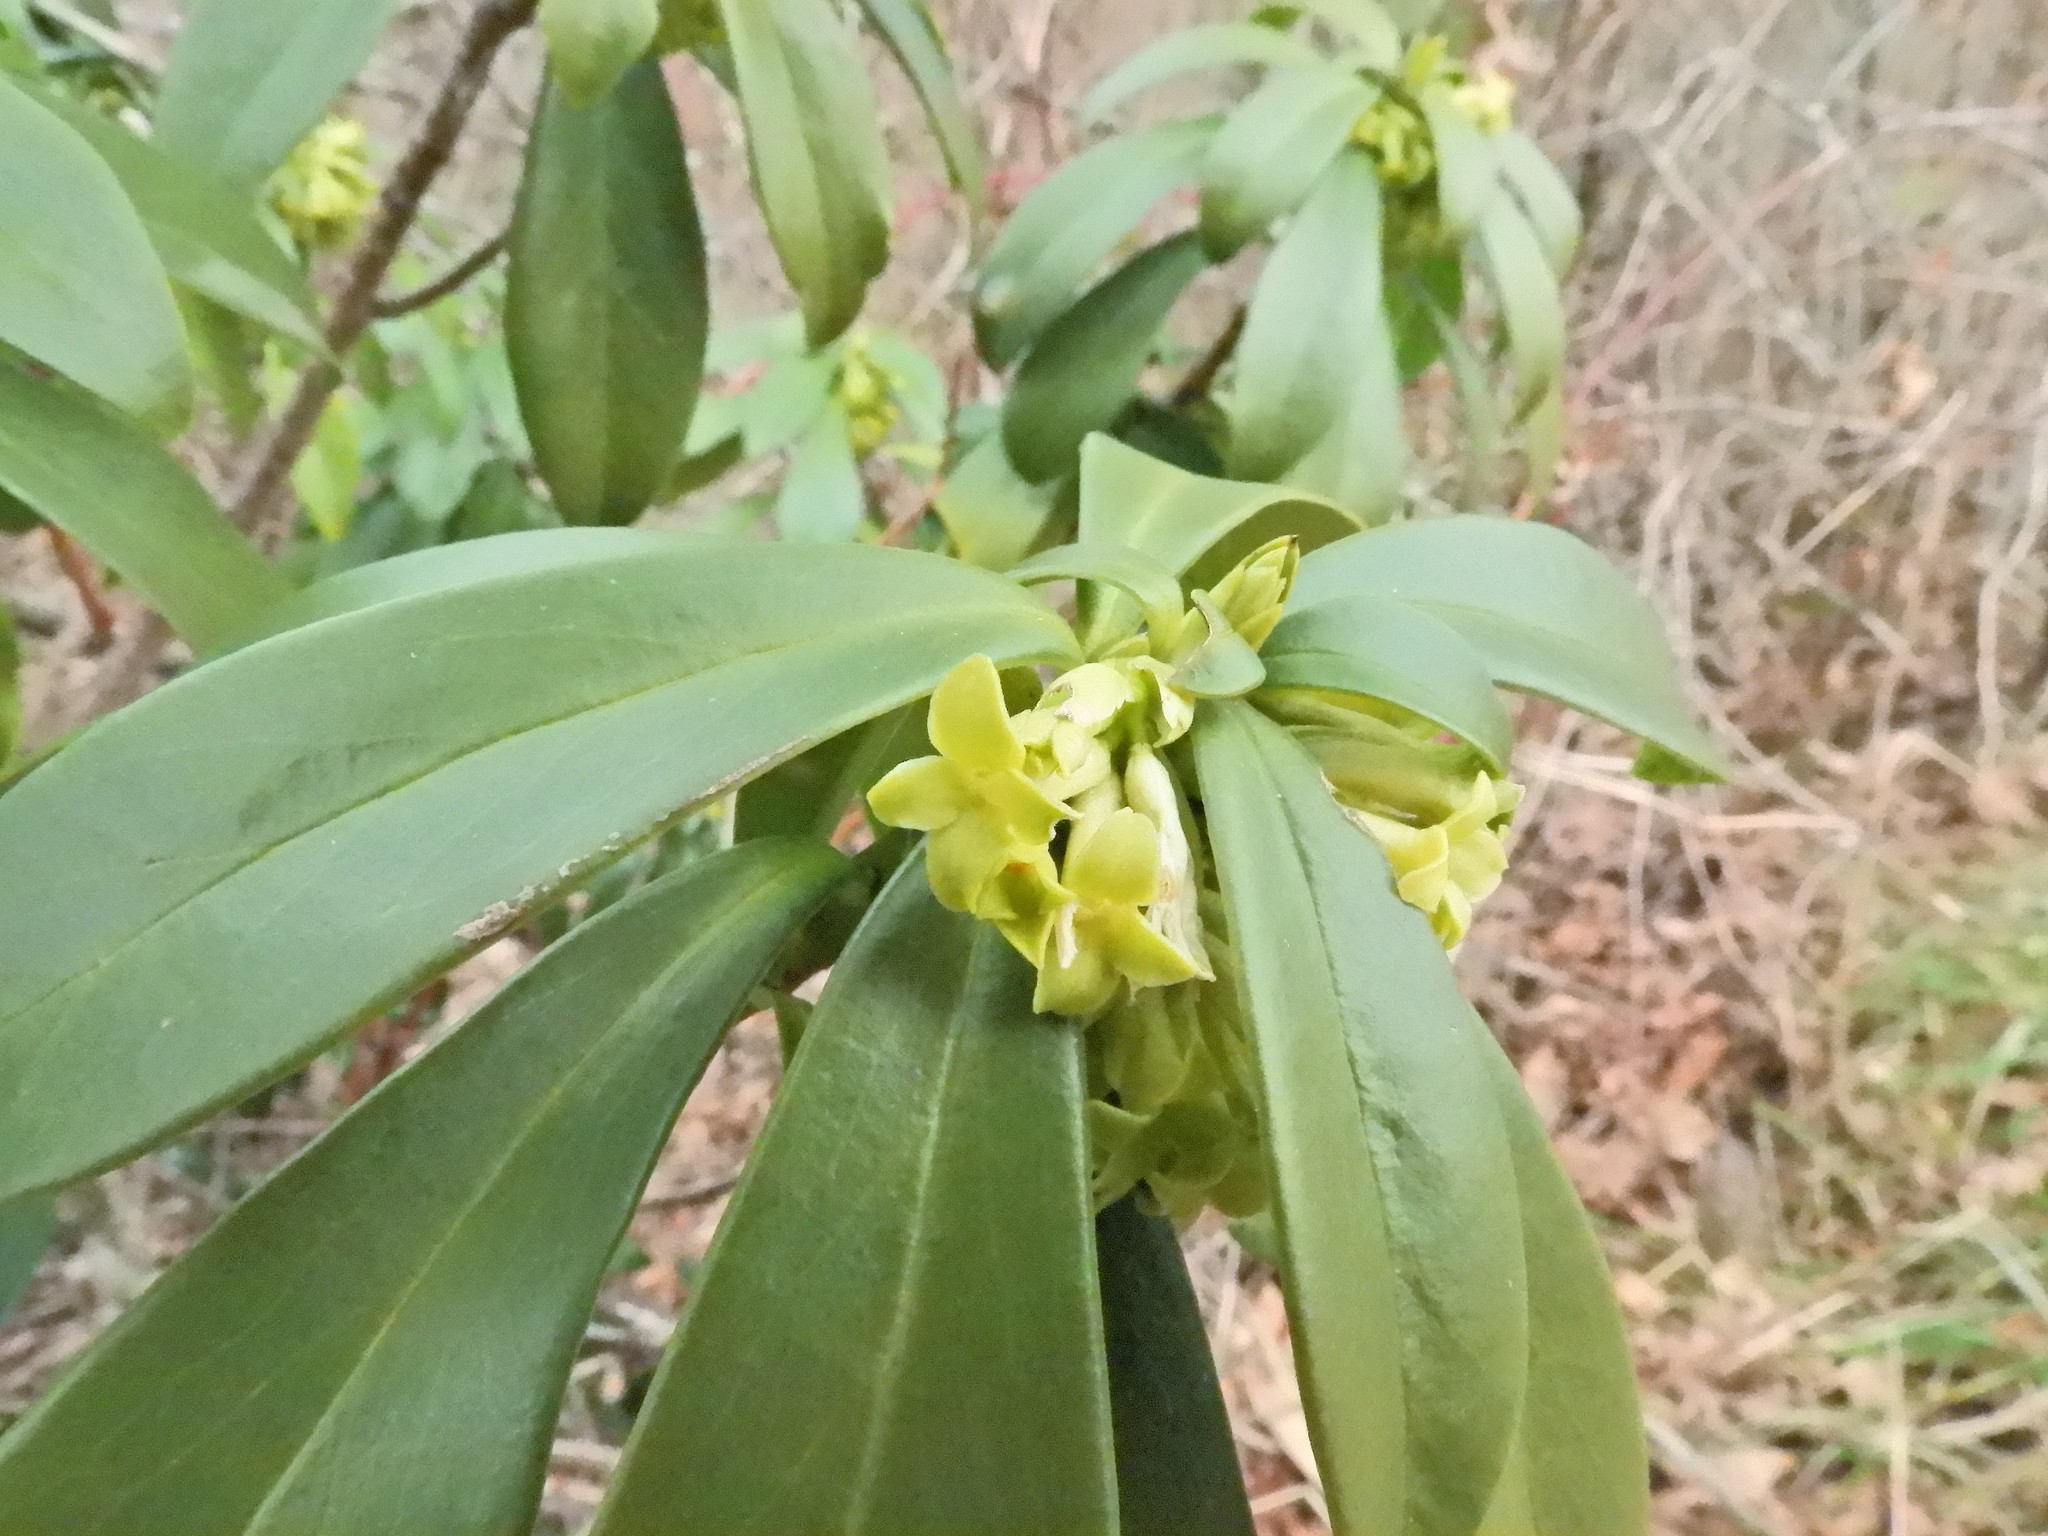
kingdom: Plantae
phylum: Tracheophyta
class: Magnoliopsida
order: Malvales
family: Thymelaeaceae
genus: Daphne
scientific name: Daphne laureola
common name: Spurge-laurel
